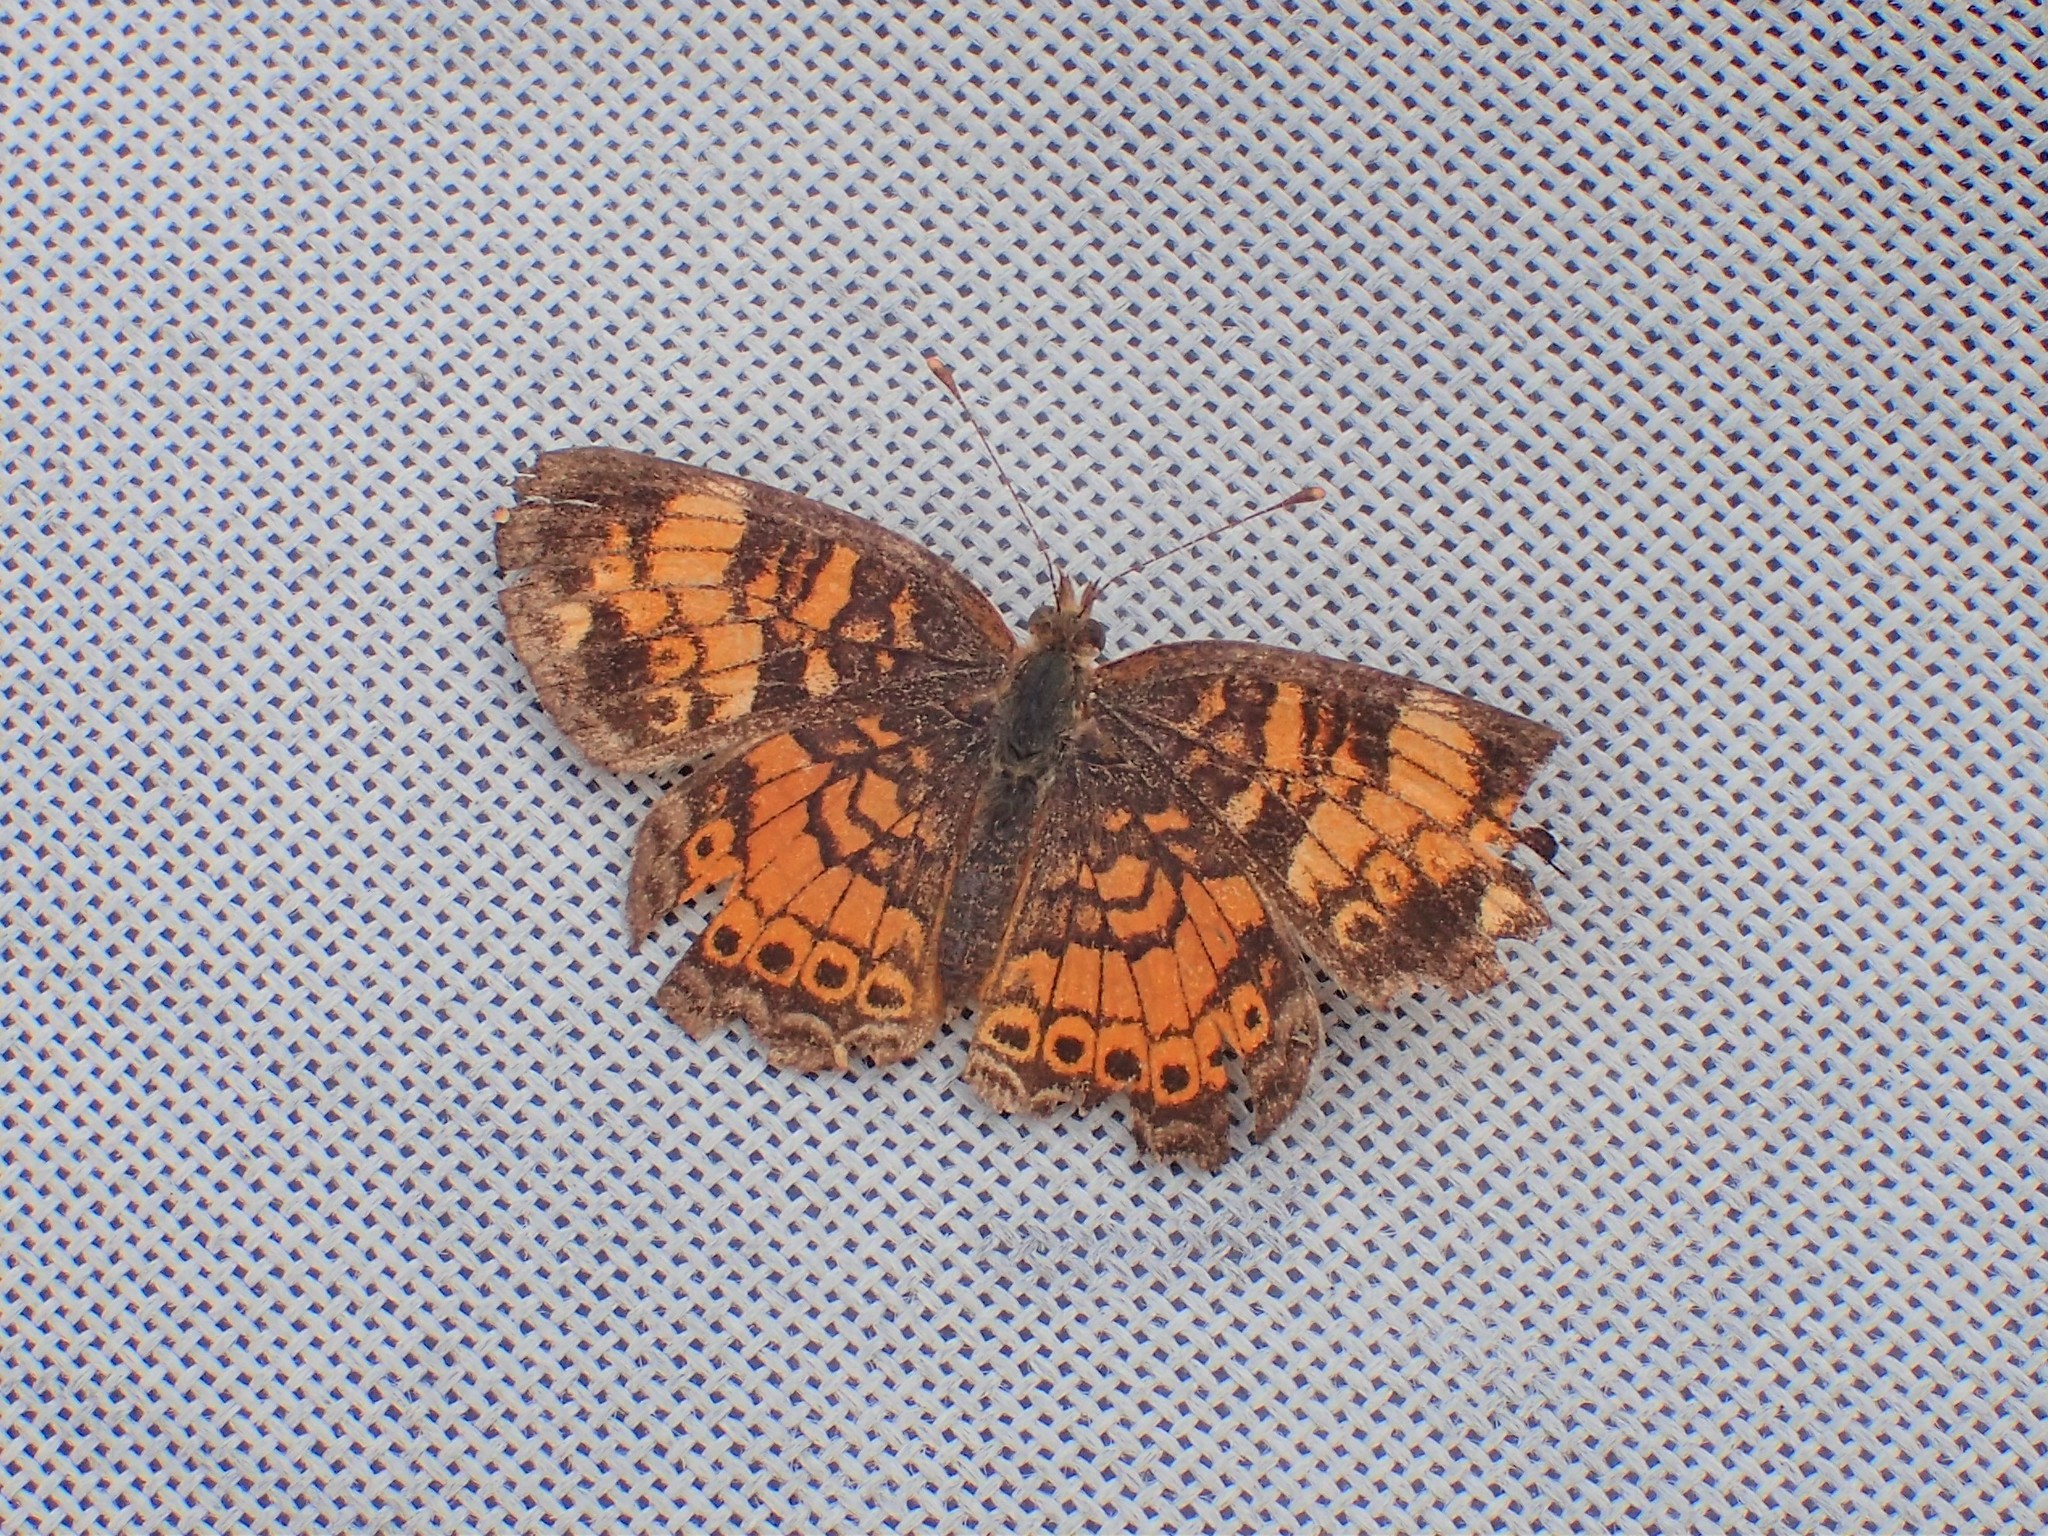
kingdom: Animalia
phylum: Arthropoda
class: Insecta
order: Lepidoptera
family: Nymphalidae
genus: Phyciodes
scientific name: Phyciodes tharos
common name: Pearl crescent
